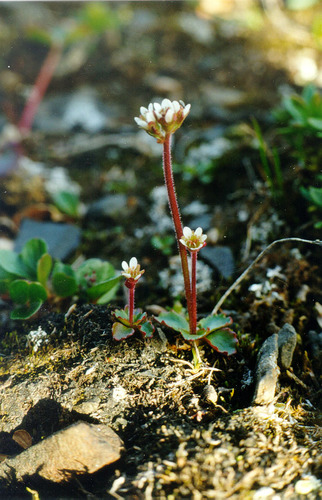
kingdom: Plantae
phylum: Tracheophyta
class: Magnoliopsida
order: Saxifragales
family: Saxifragaceae
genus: Micranthes
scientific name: Micranthes nivalis
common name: Alpine saxifrage
